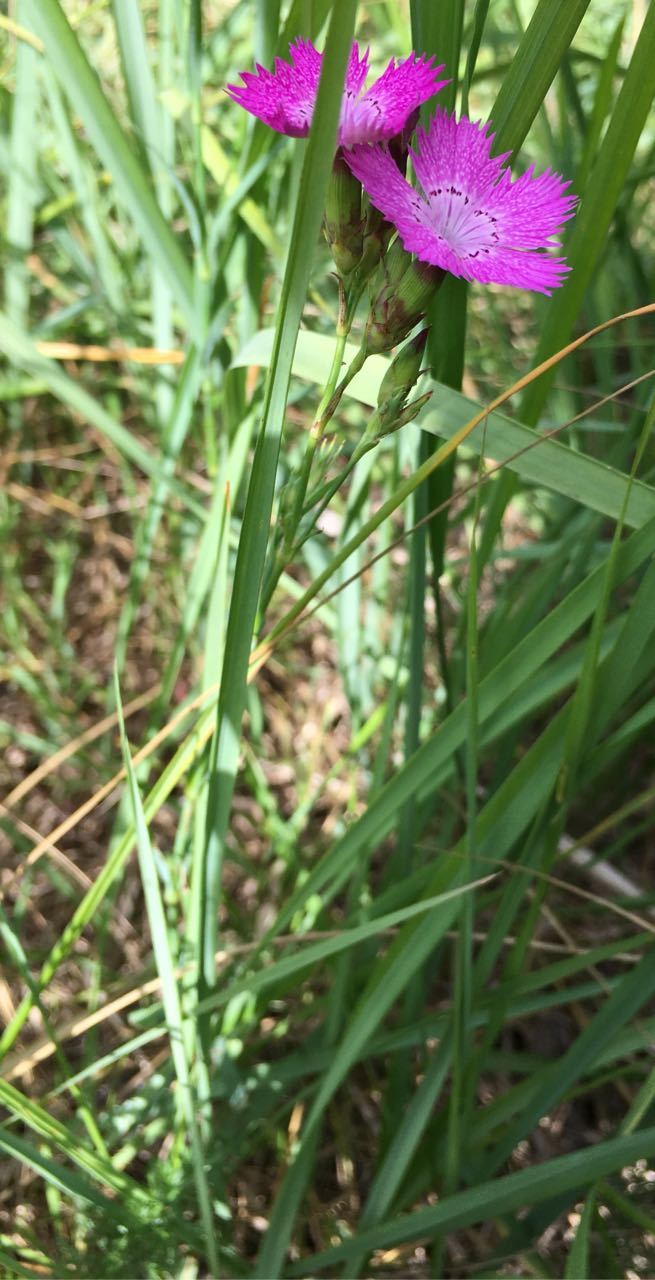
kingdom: Plantae
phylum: Tracheophyta
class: Magnoliopsida
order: Caryophyllales
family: Caryophyllaceae
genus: Dianthus
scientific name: Dianthus chinensis
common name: Rainbow pink
